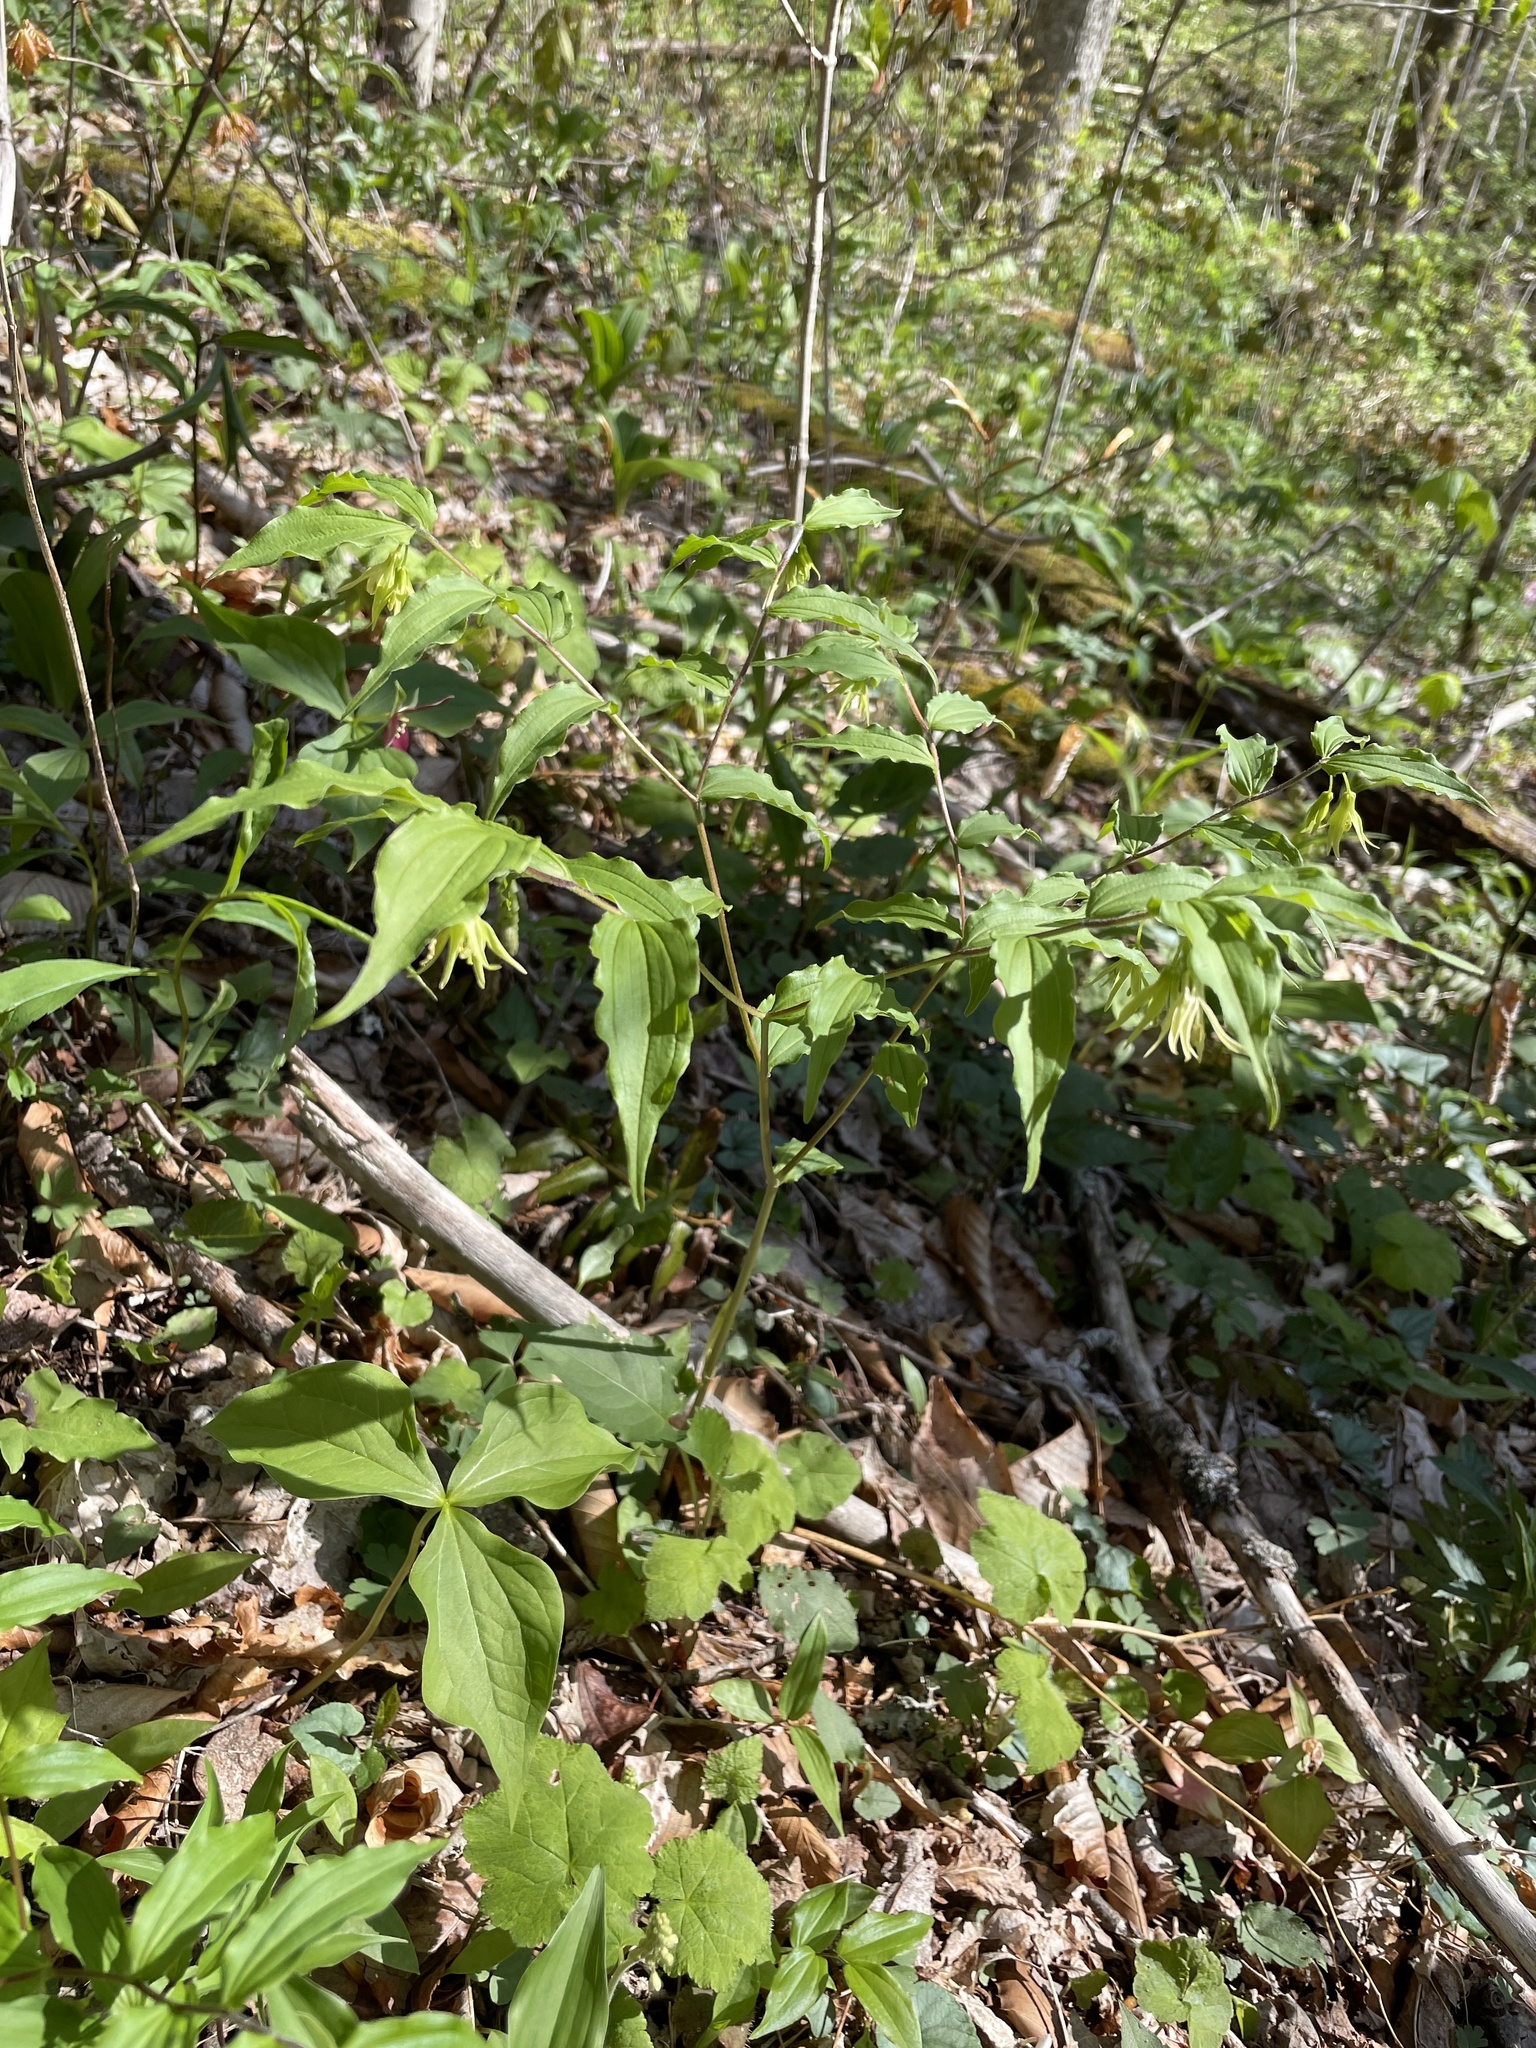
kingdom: Plantae
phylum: Tracheophyta
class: Liliopsida
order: Liliales
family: Liliaceae
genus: Prosartes
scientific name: Prosartes lanuginosa
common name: Hairy mandarin
